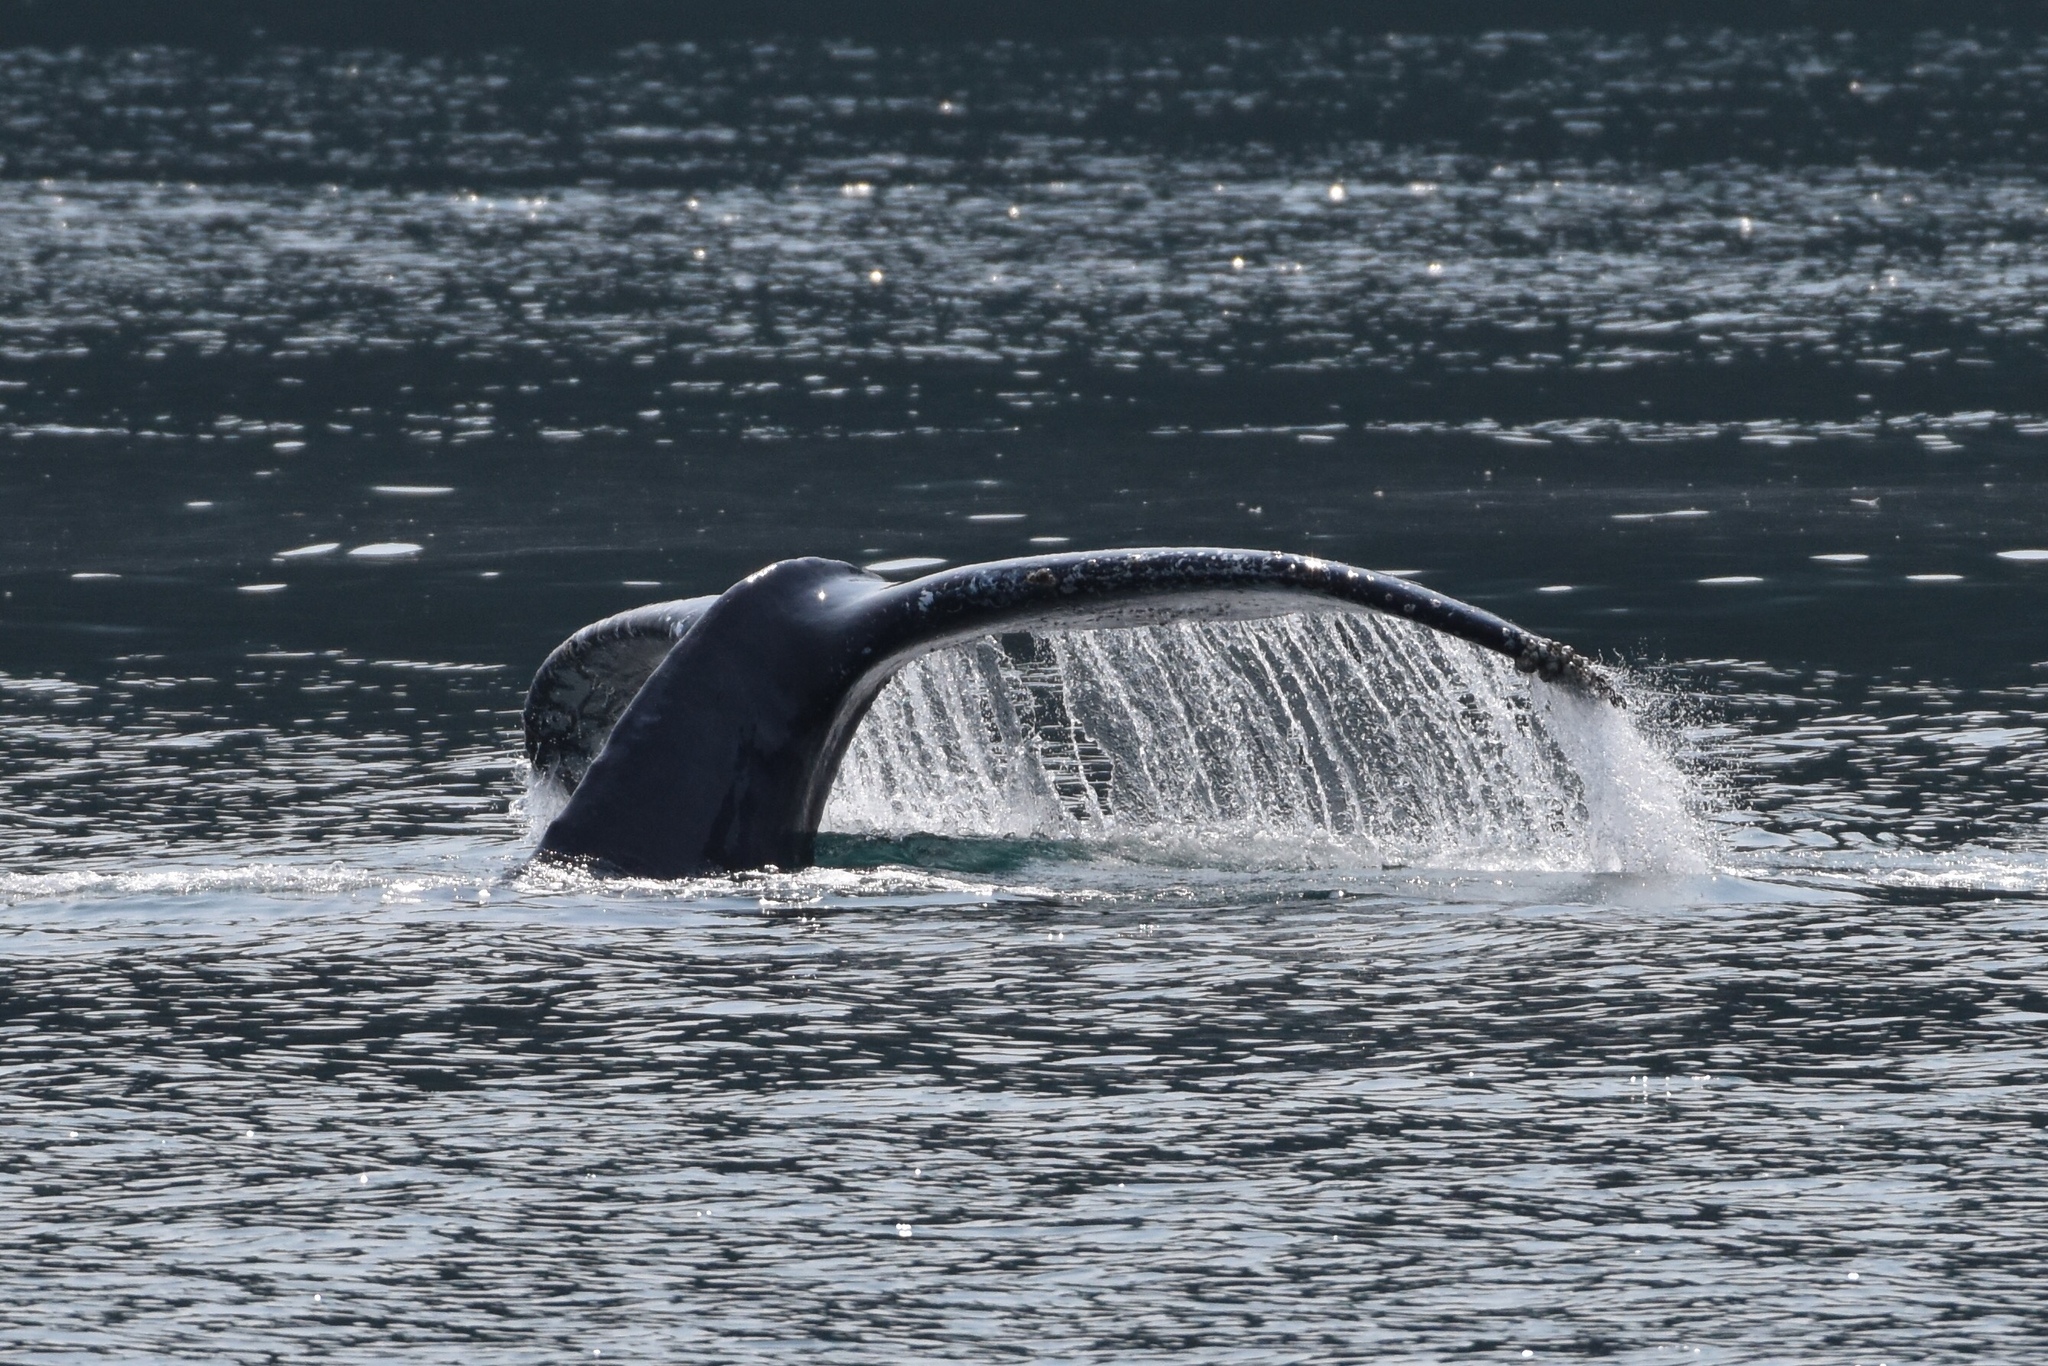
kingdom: Animalia
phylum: Chordata
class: Mammalia
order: Cetacea
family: Balaenopteridae
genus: Megaptera
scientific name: Megaptera novaeangliae
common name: Humpback whale
